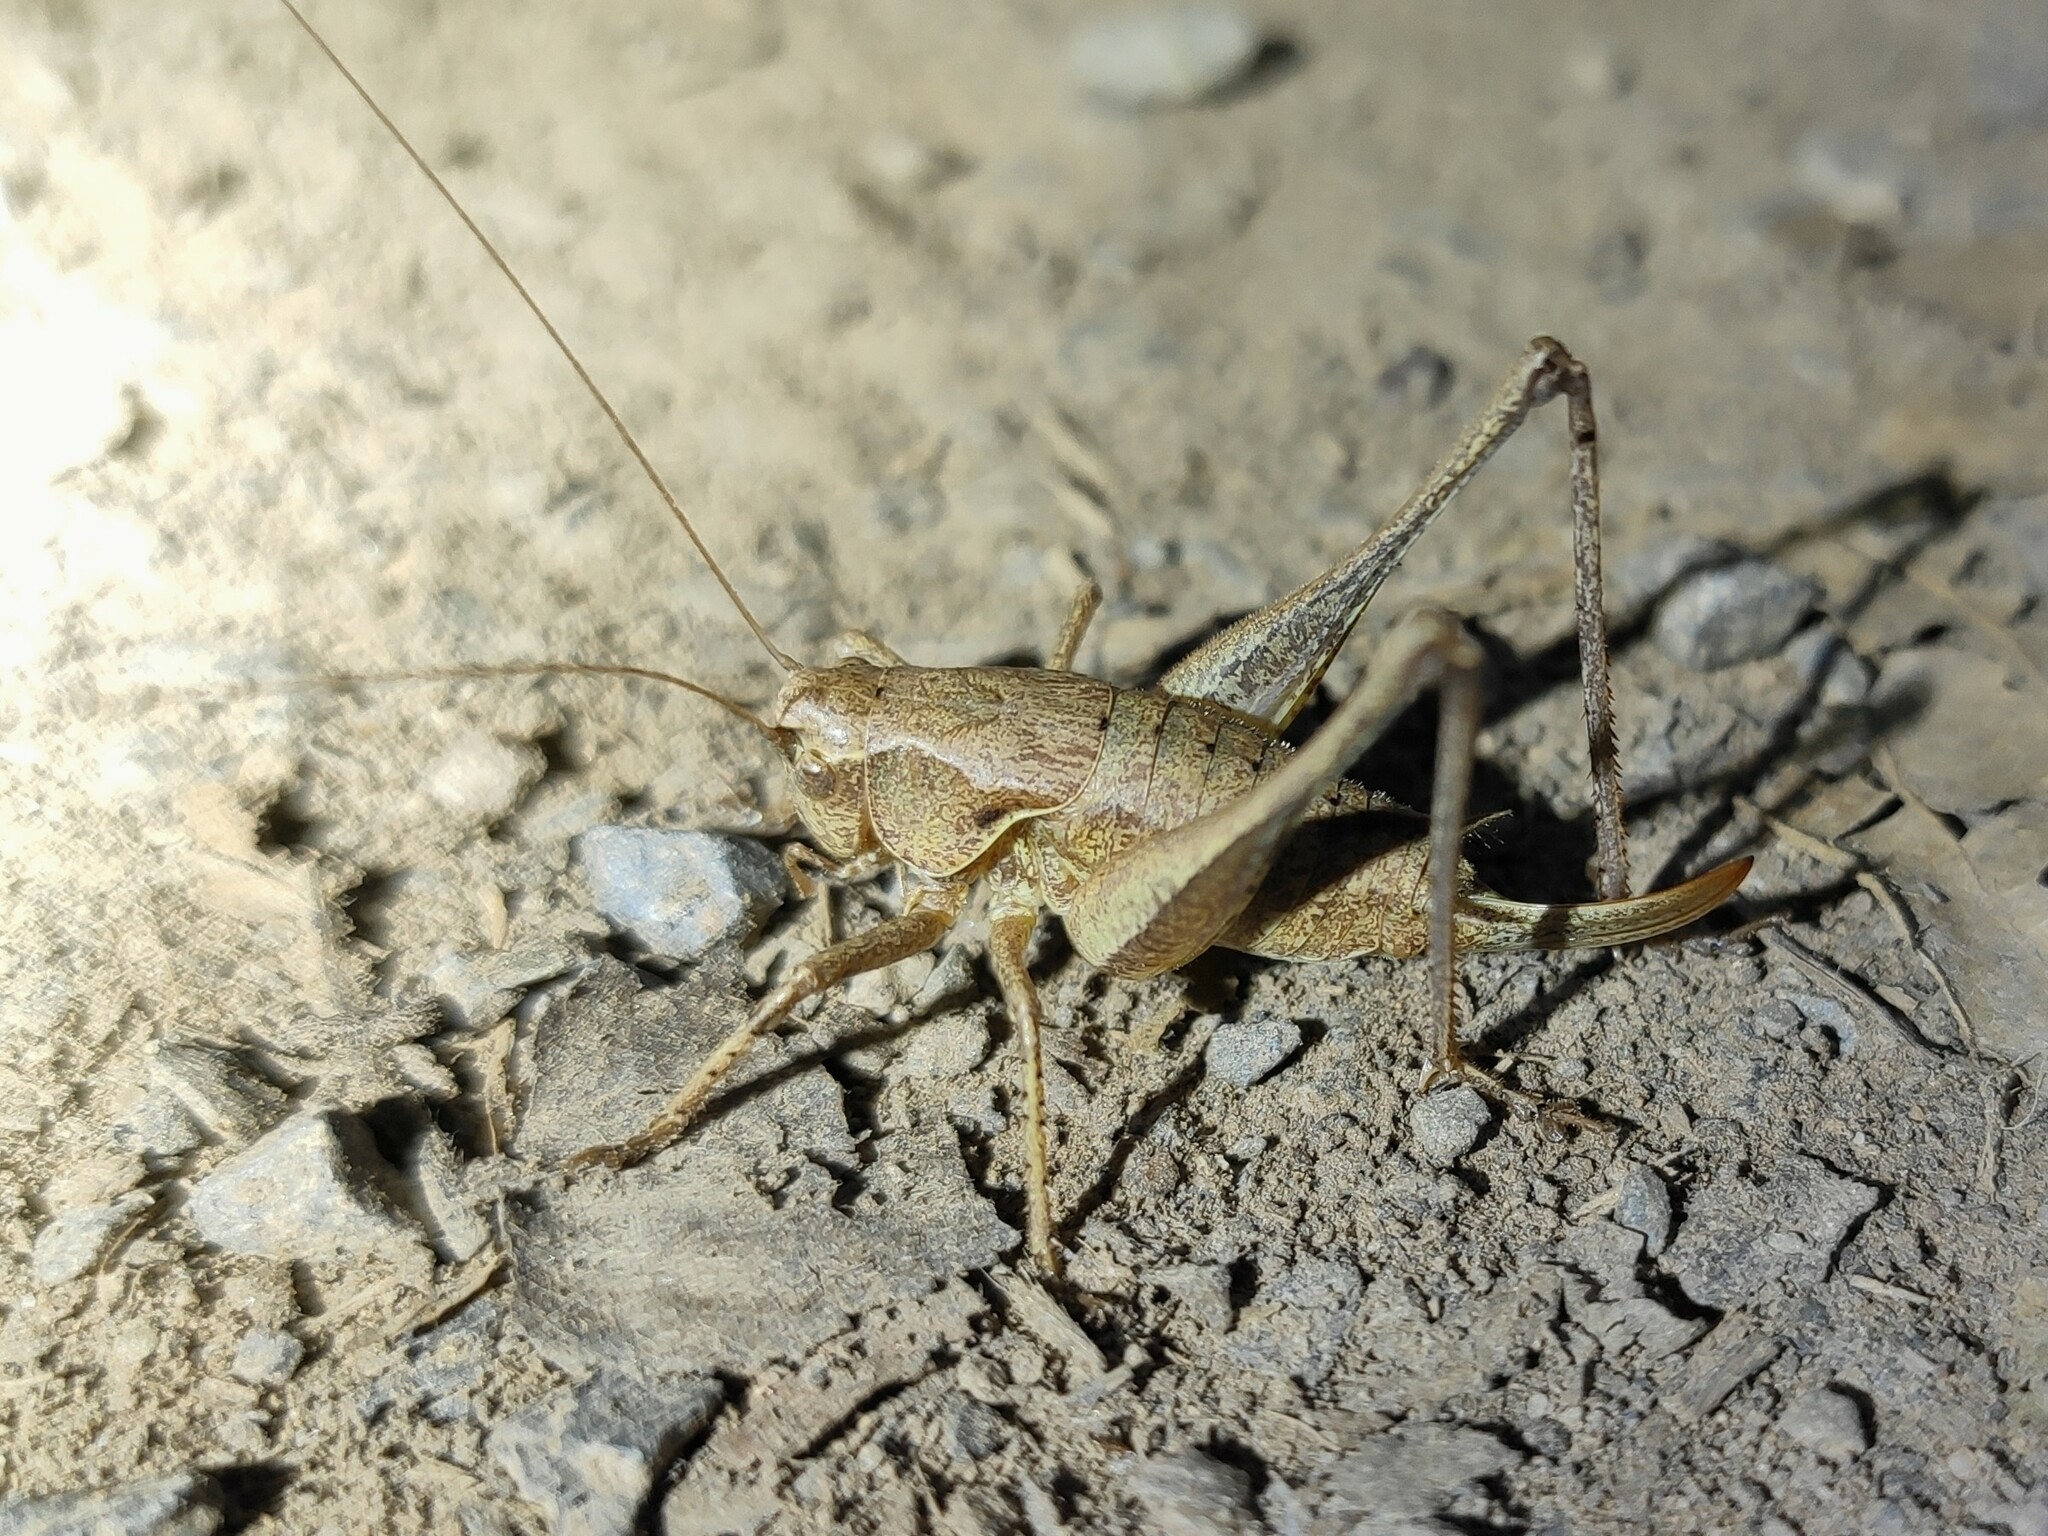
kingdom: Animalia
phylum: Arthropoda
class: Insecta
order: Orthoptera
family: Tettigoniidae
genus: Pholidoptera
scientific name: Pholidoptera griseoaptera
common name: Dark bush-cricket
